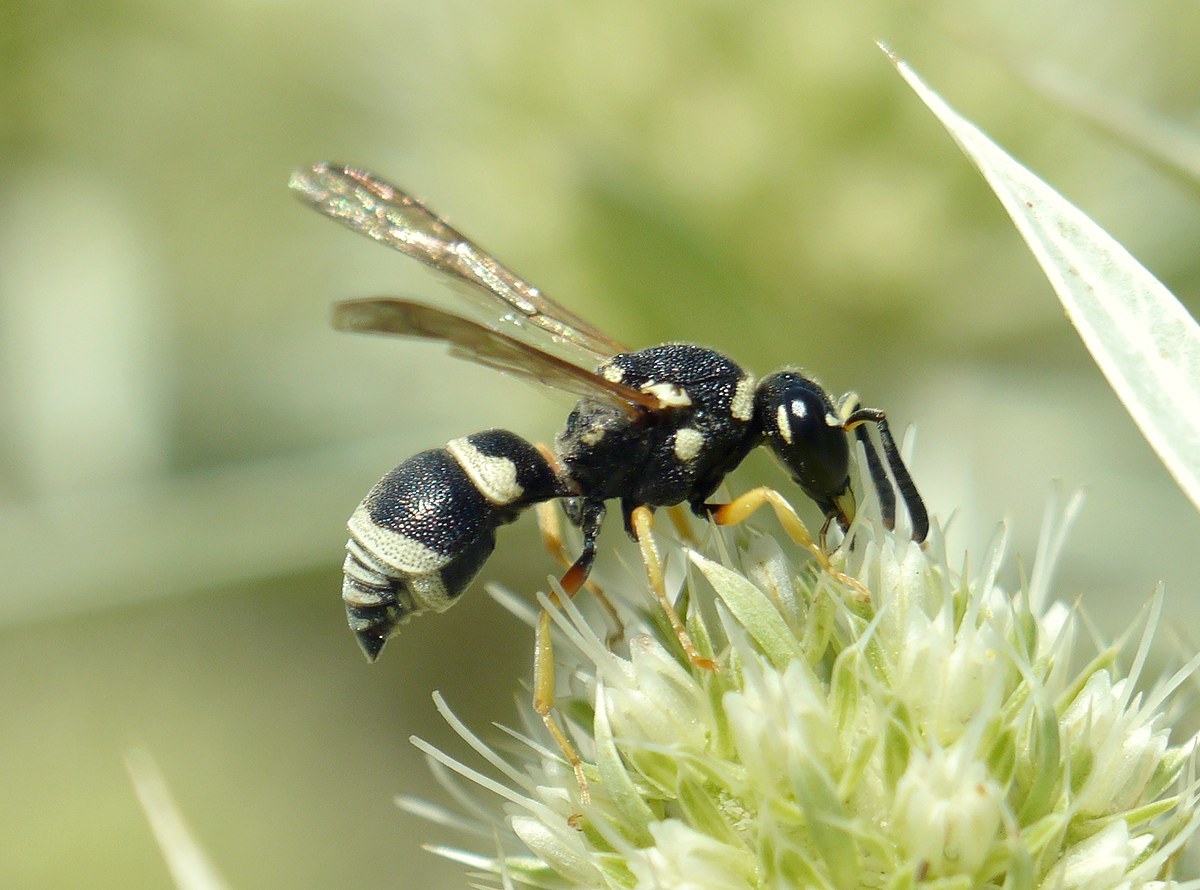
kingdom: Animalia
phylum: Arthropoda
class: Insecta
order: Hymenoptera
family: Eumenidae
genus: Antepipona
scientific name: Antepipona orbitalis
